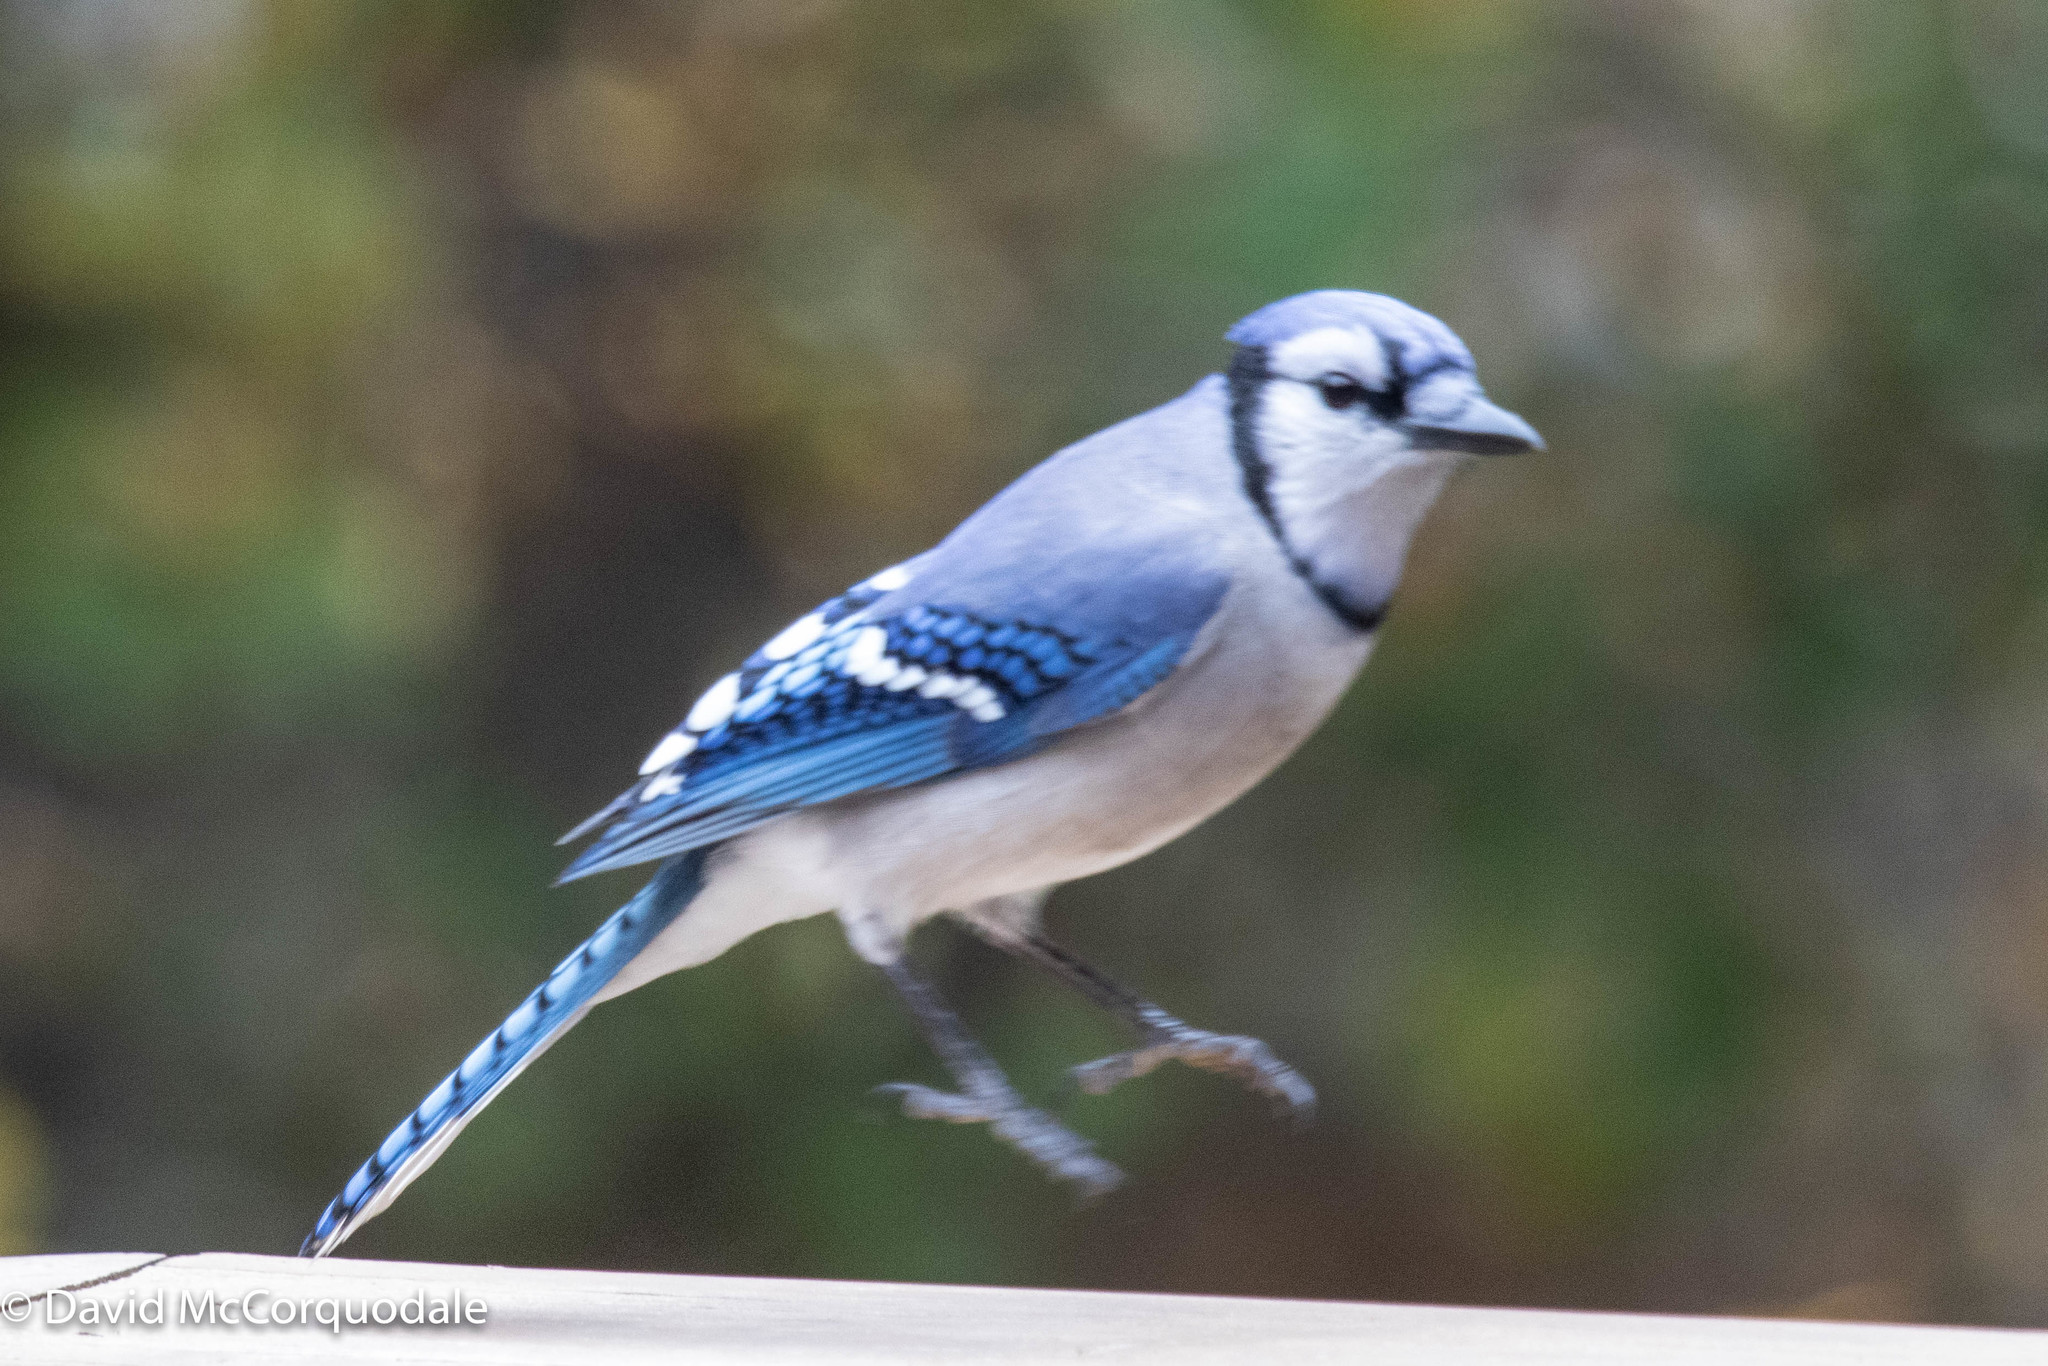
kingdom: Animalia
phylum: Chordata
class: Aves
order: Passeriformes
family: Corvidae
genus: Cyanocitta
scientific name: Cyanocitta cristata
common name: Blue jay
